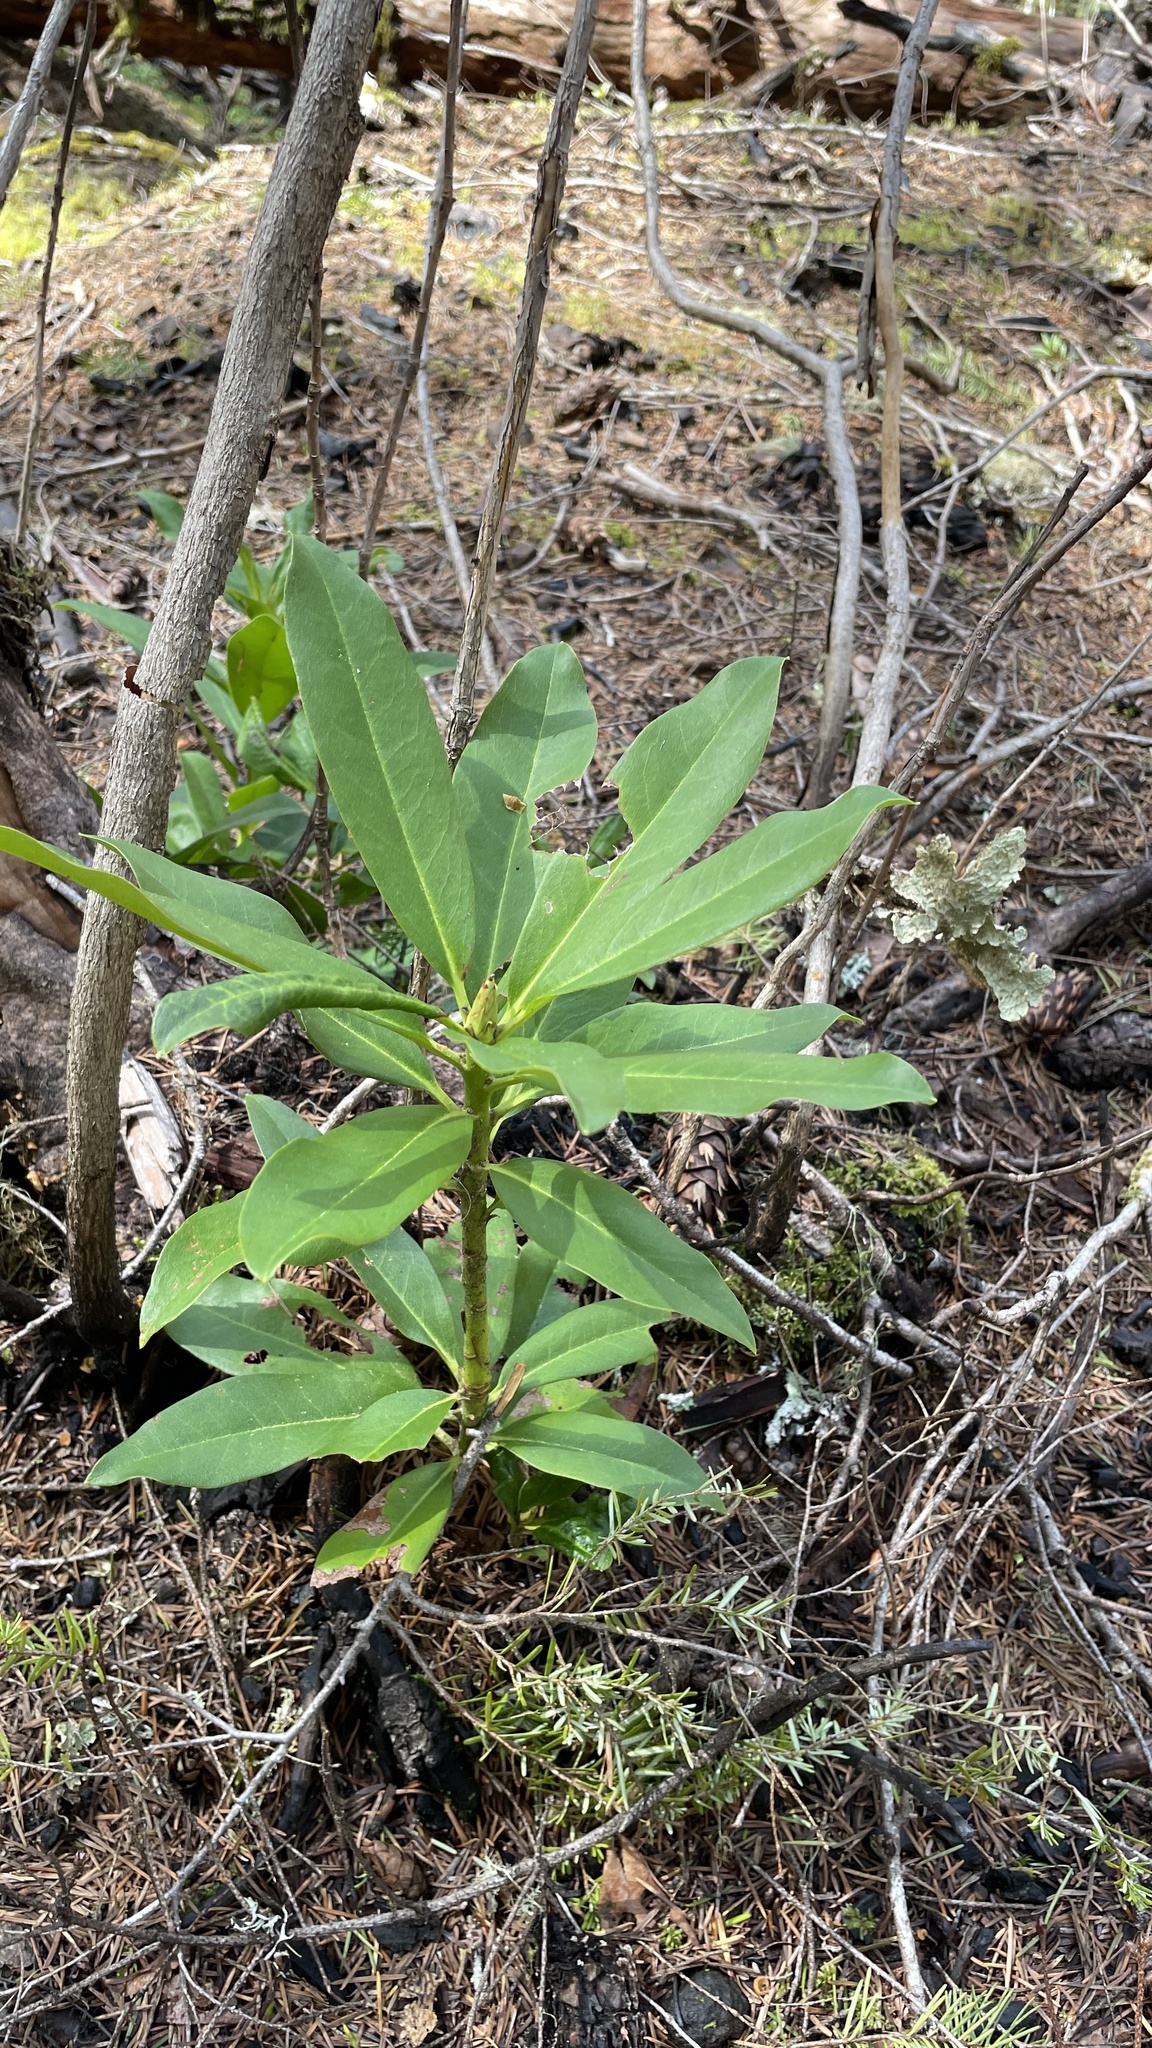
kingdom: Plantae
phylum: Tracheophyta
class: Magnoliopsida
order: Ericales
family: Ericaceae
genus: Rhododendron
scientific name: Rhododendron macrophyllum
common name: California rose bay
